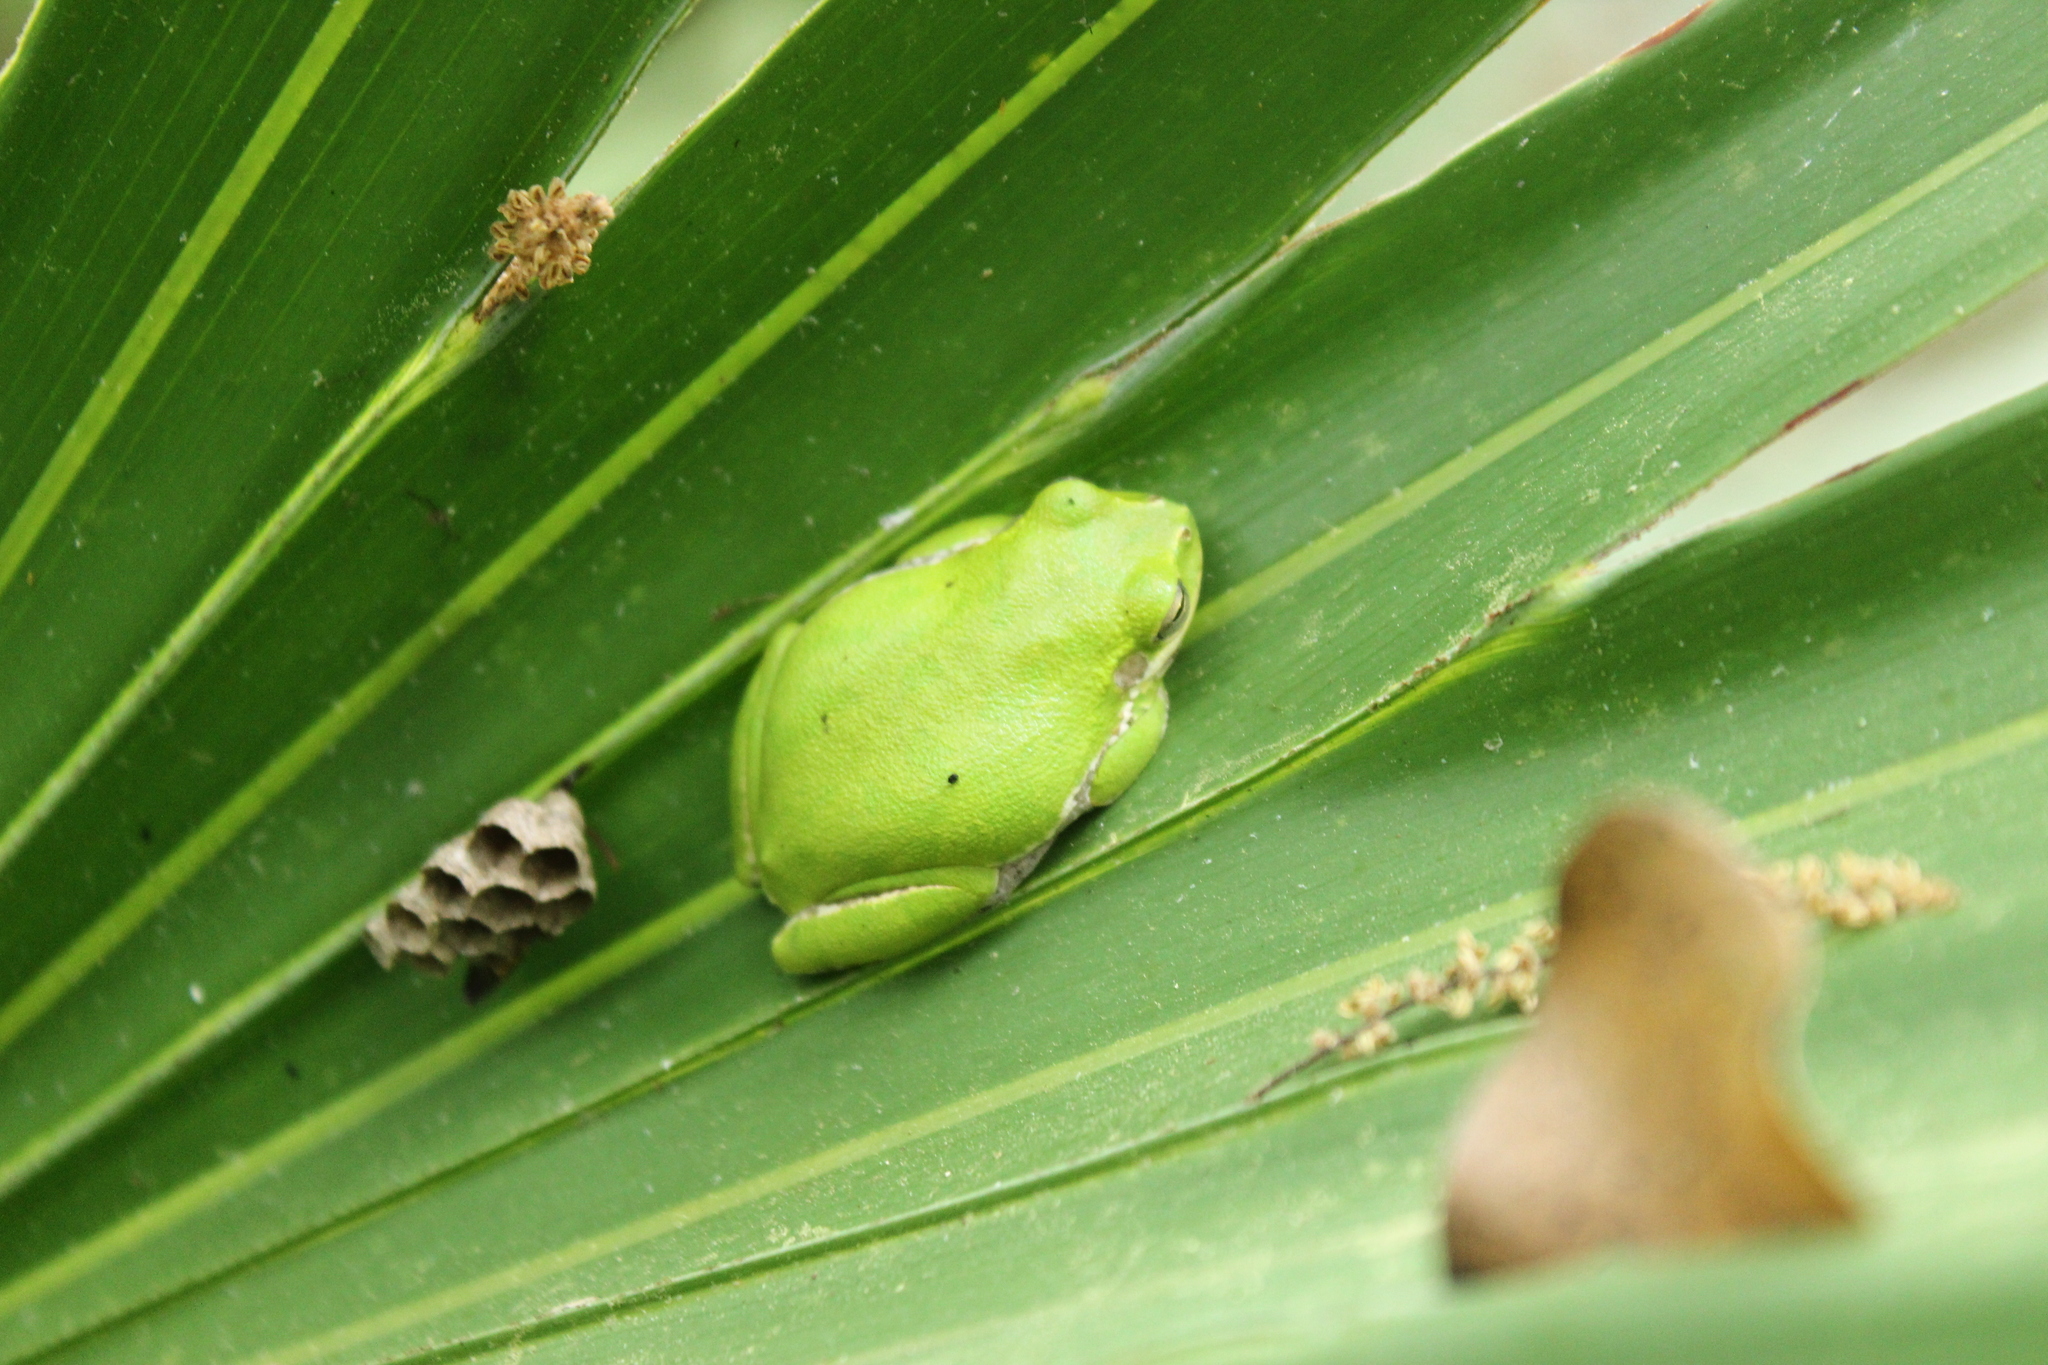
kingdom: Animalia
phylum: Chordata
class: Amphibia
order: Anura
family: Hylidae
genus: Dryophytes
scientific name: Dryophytes squirellus
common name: Squirrel treefrog
